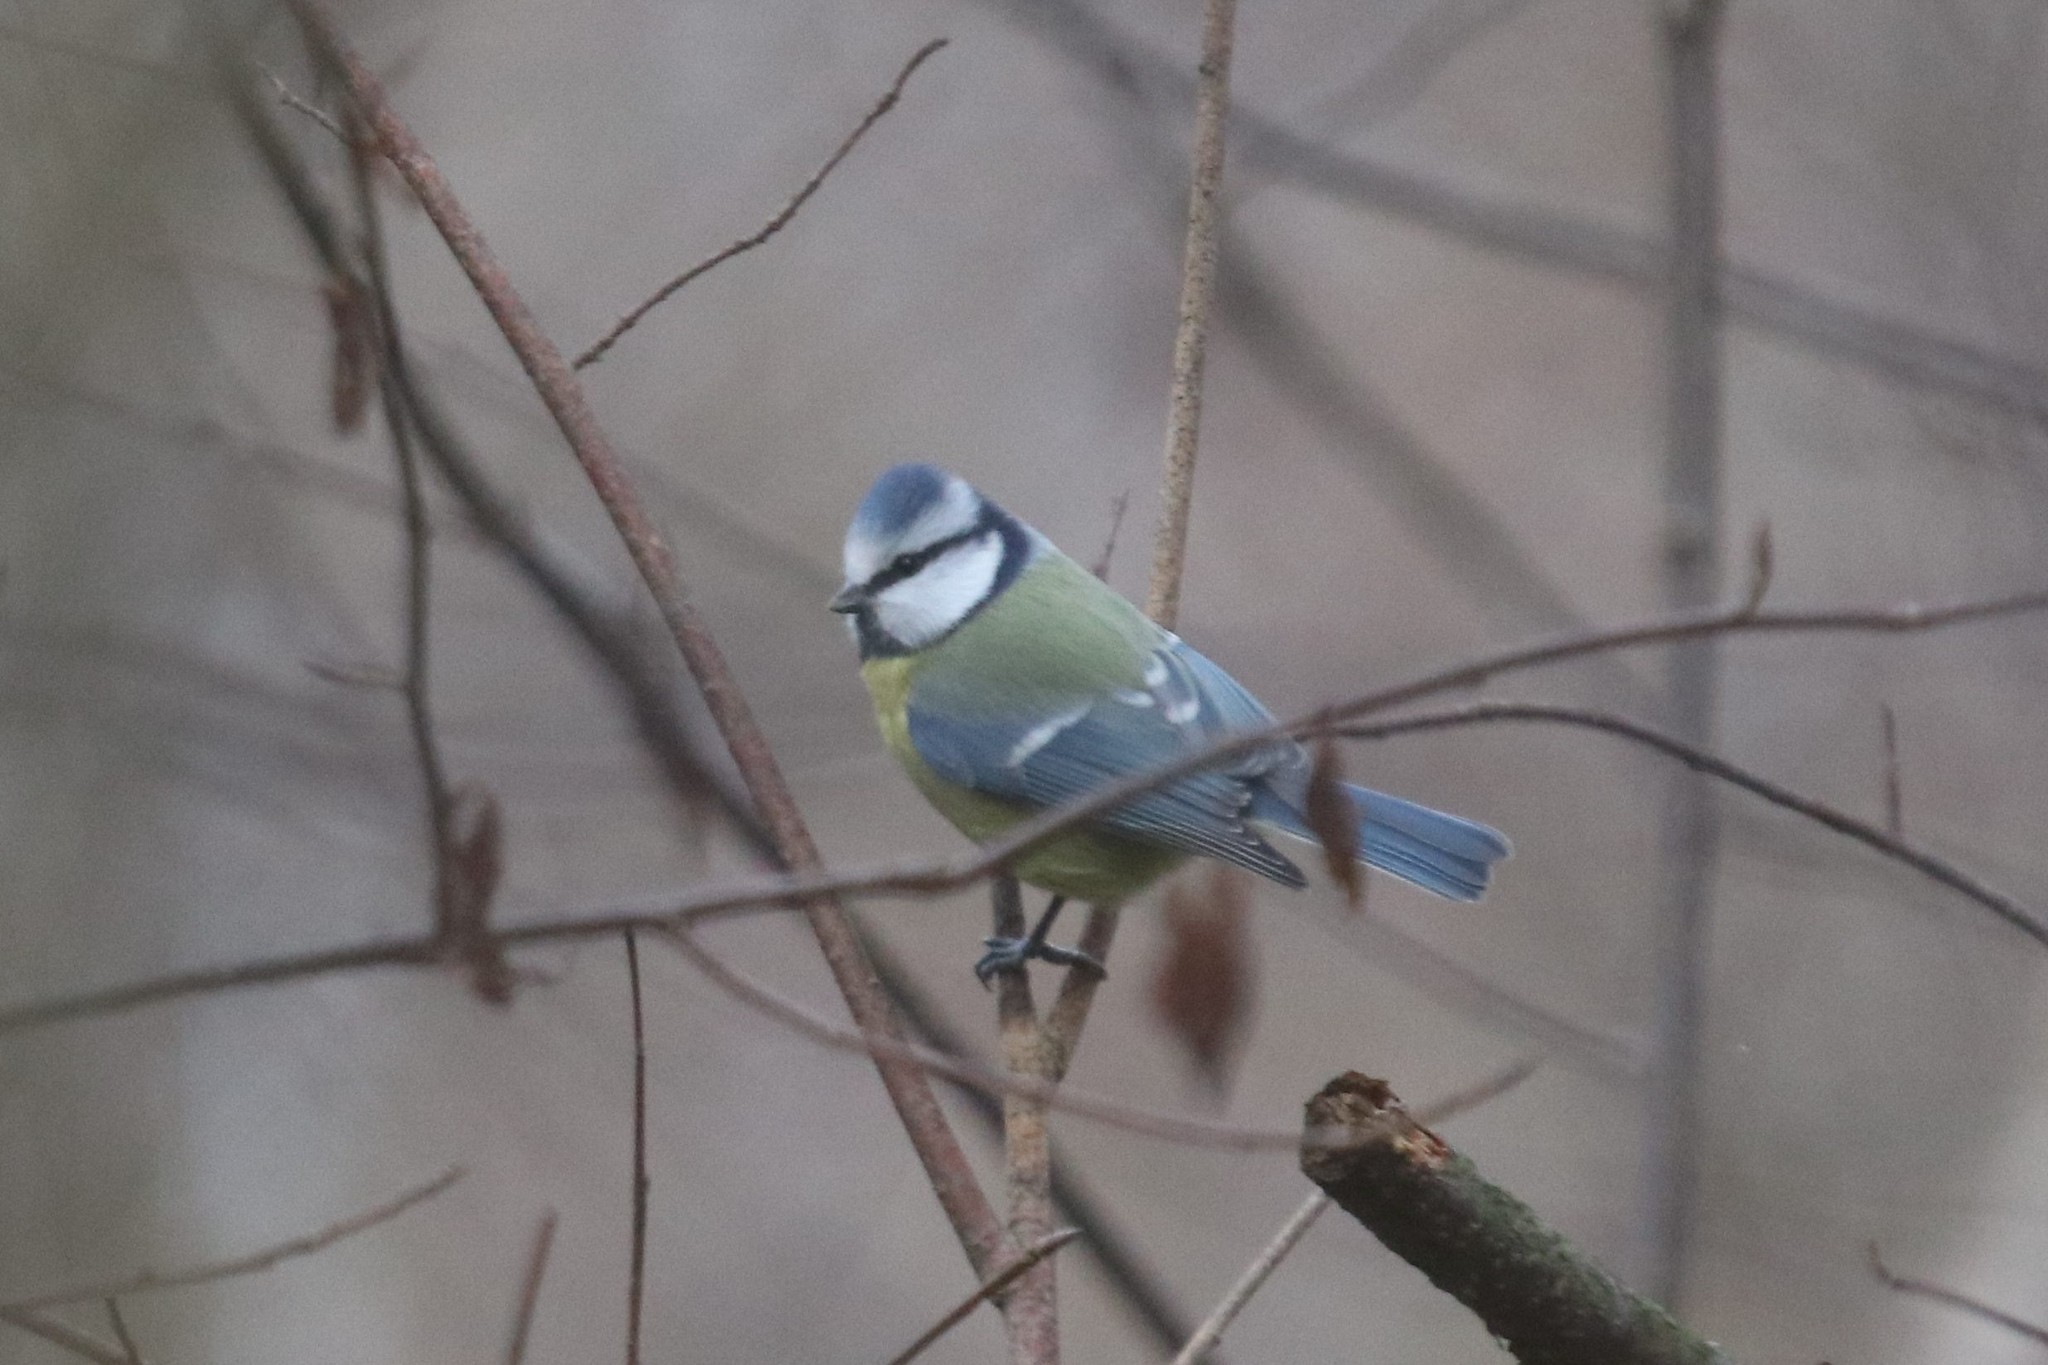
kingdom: Animalia
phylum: Chordata
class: Aves
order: Passeriformes
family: Paridae
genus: Cyanistes
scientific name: Cyanistes caeruleus
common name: Eurasian blue tit
